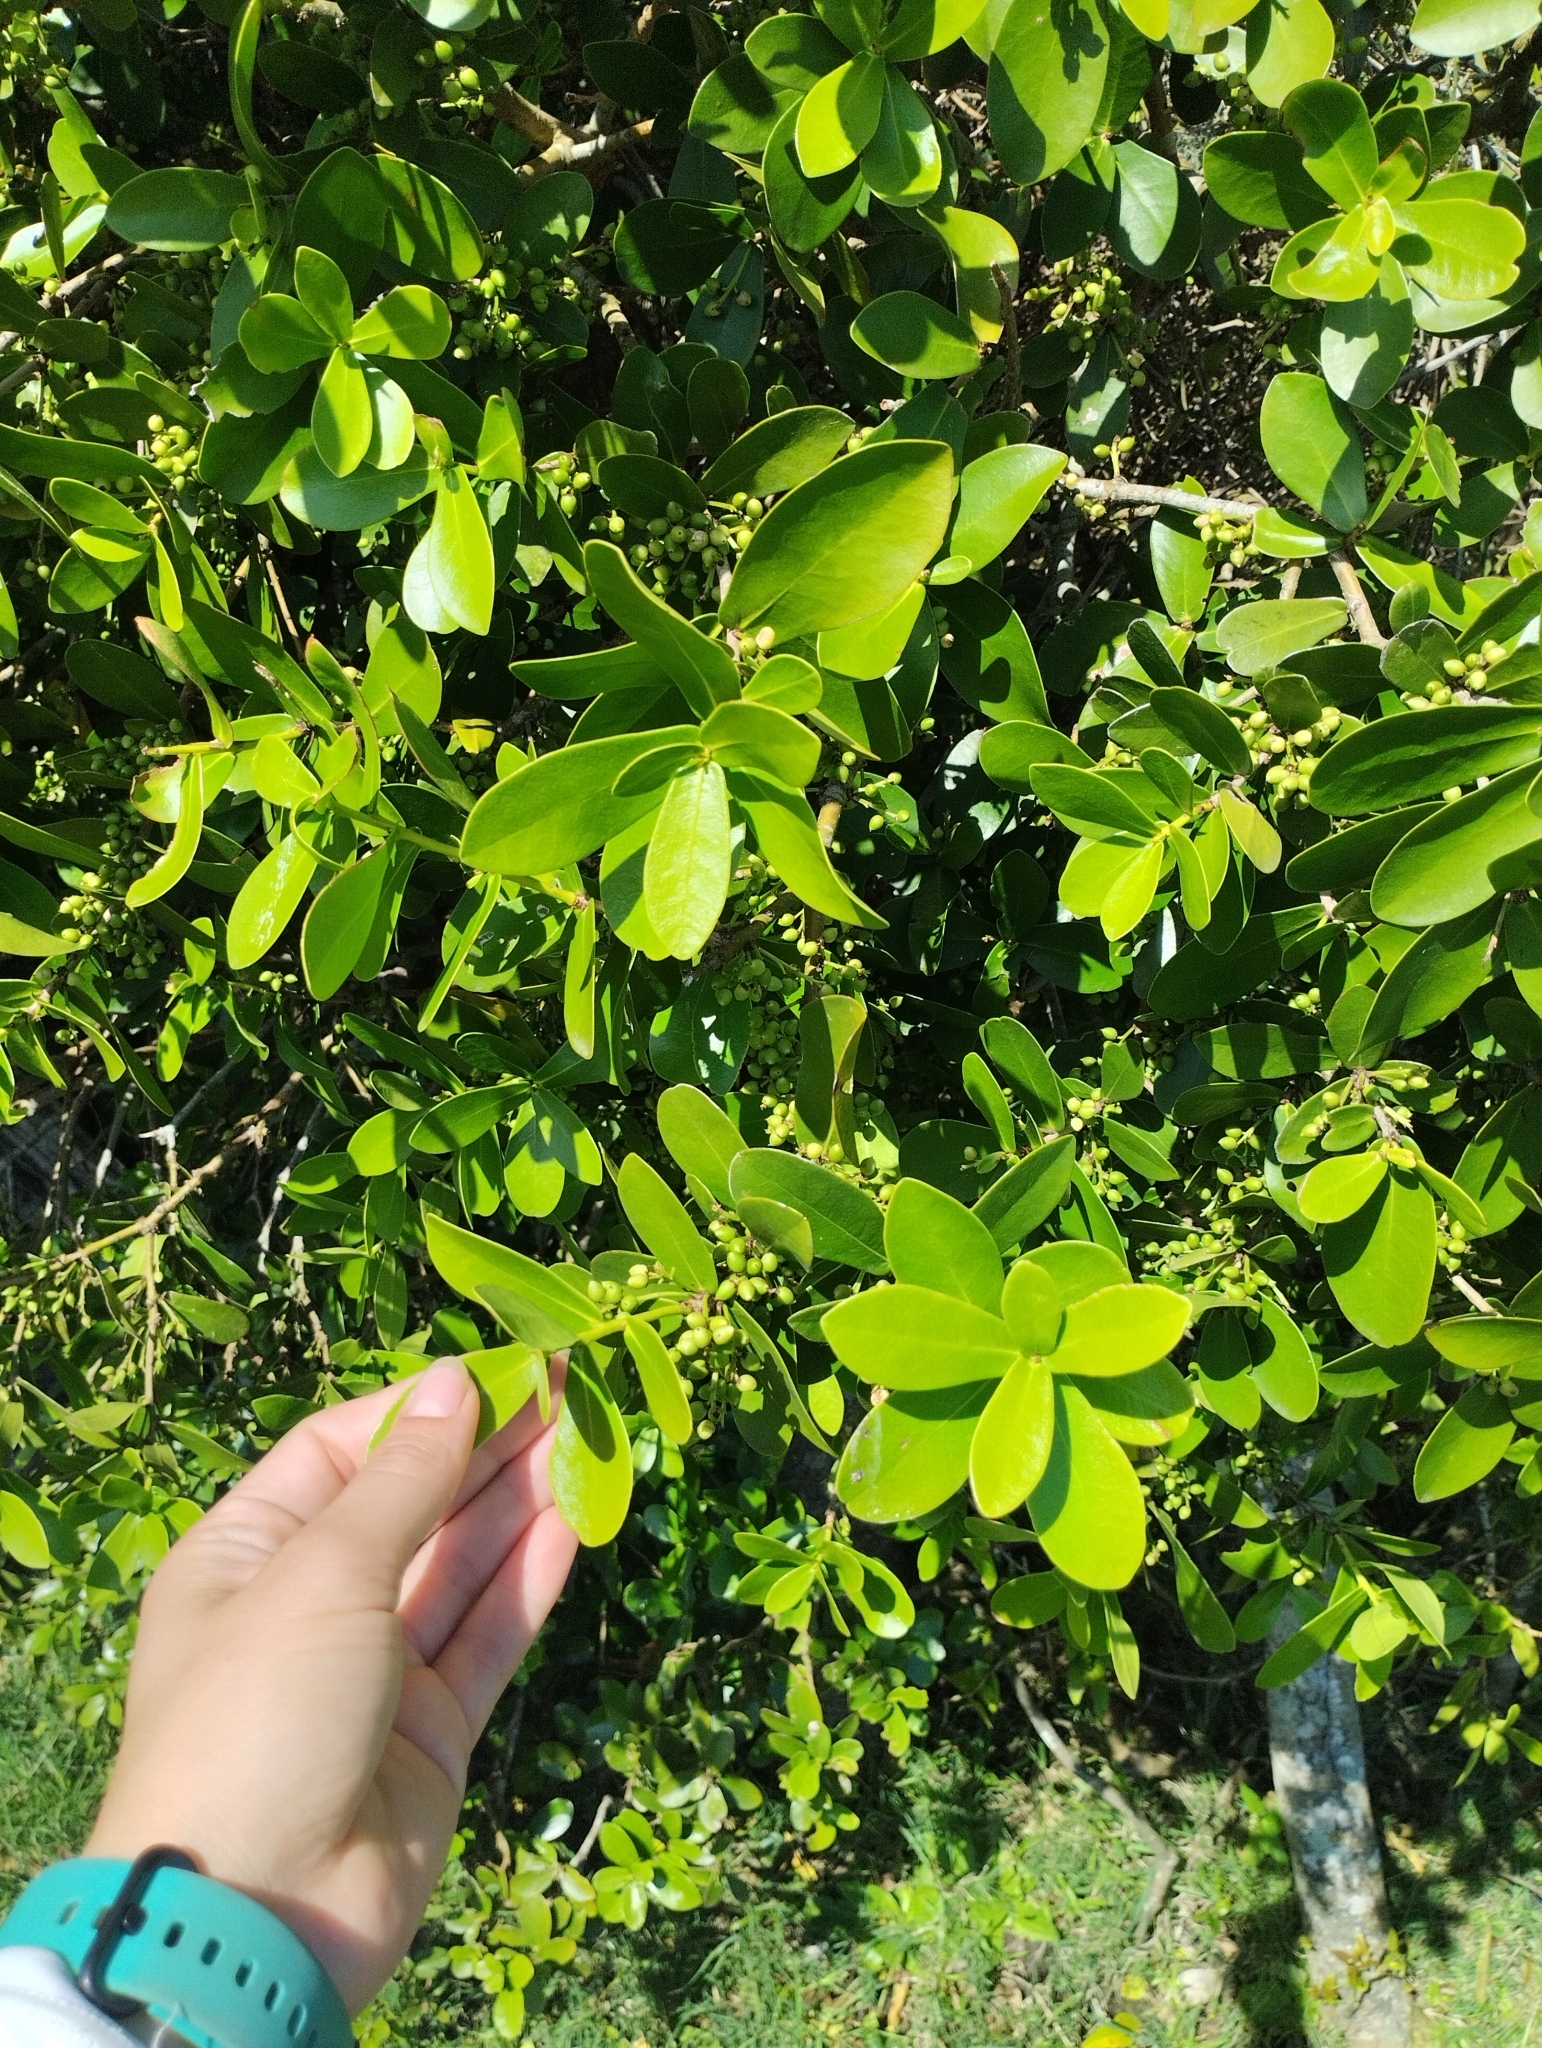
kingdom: Plantae
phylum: Tracheophyta
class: Magnoliopsida
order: Malvales
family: Thymelaeaceae
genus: Daphnopsis
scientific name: Daphnopsis racemosa
